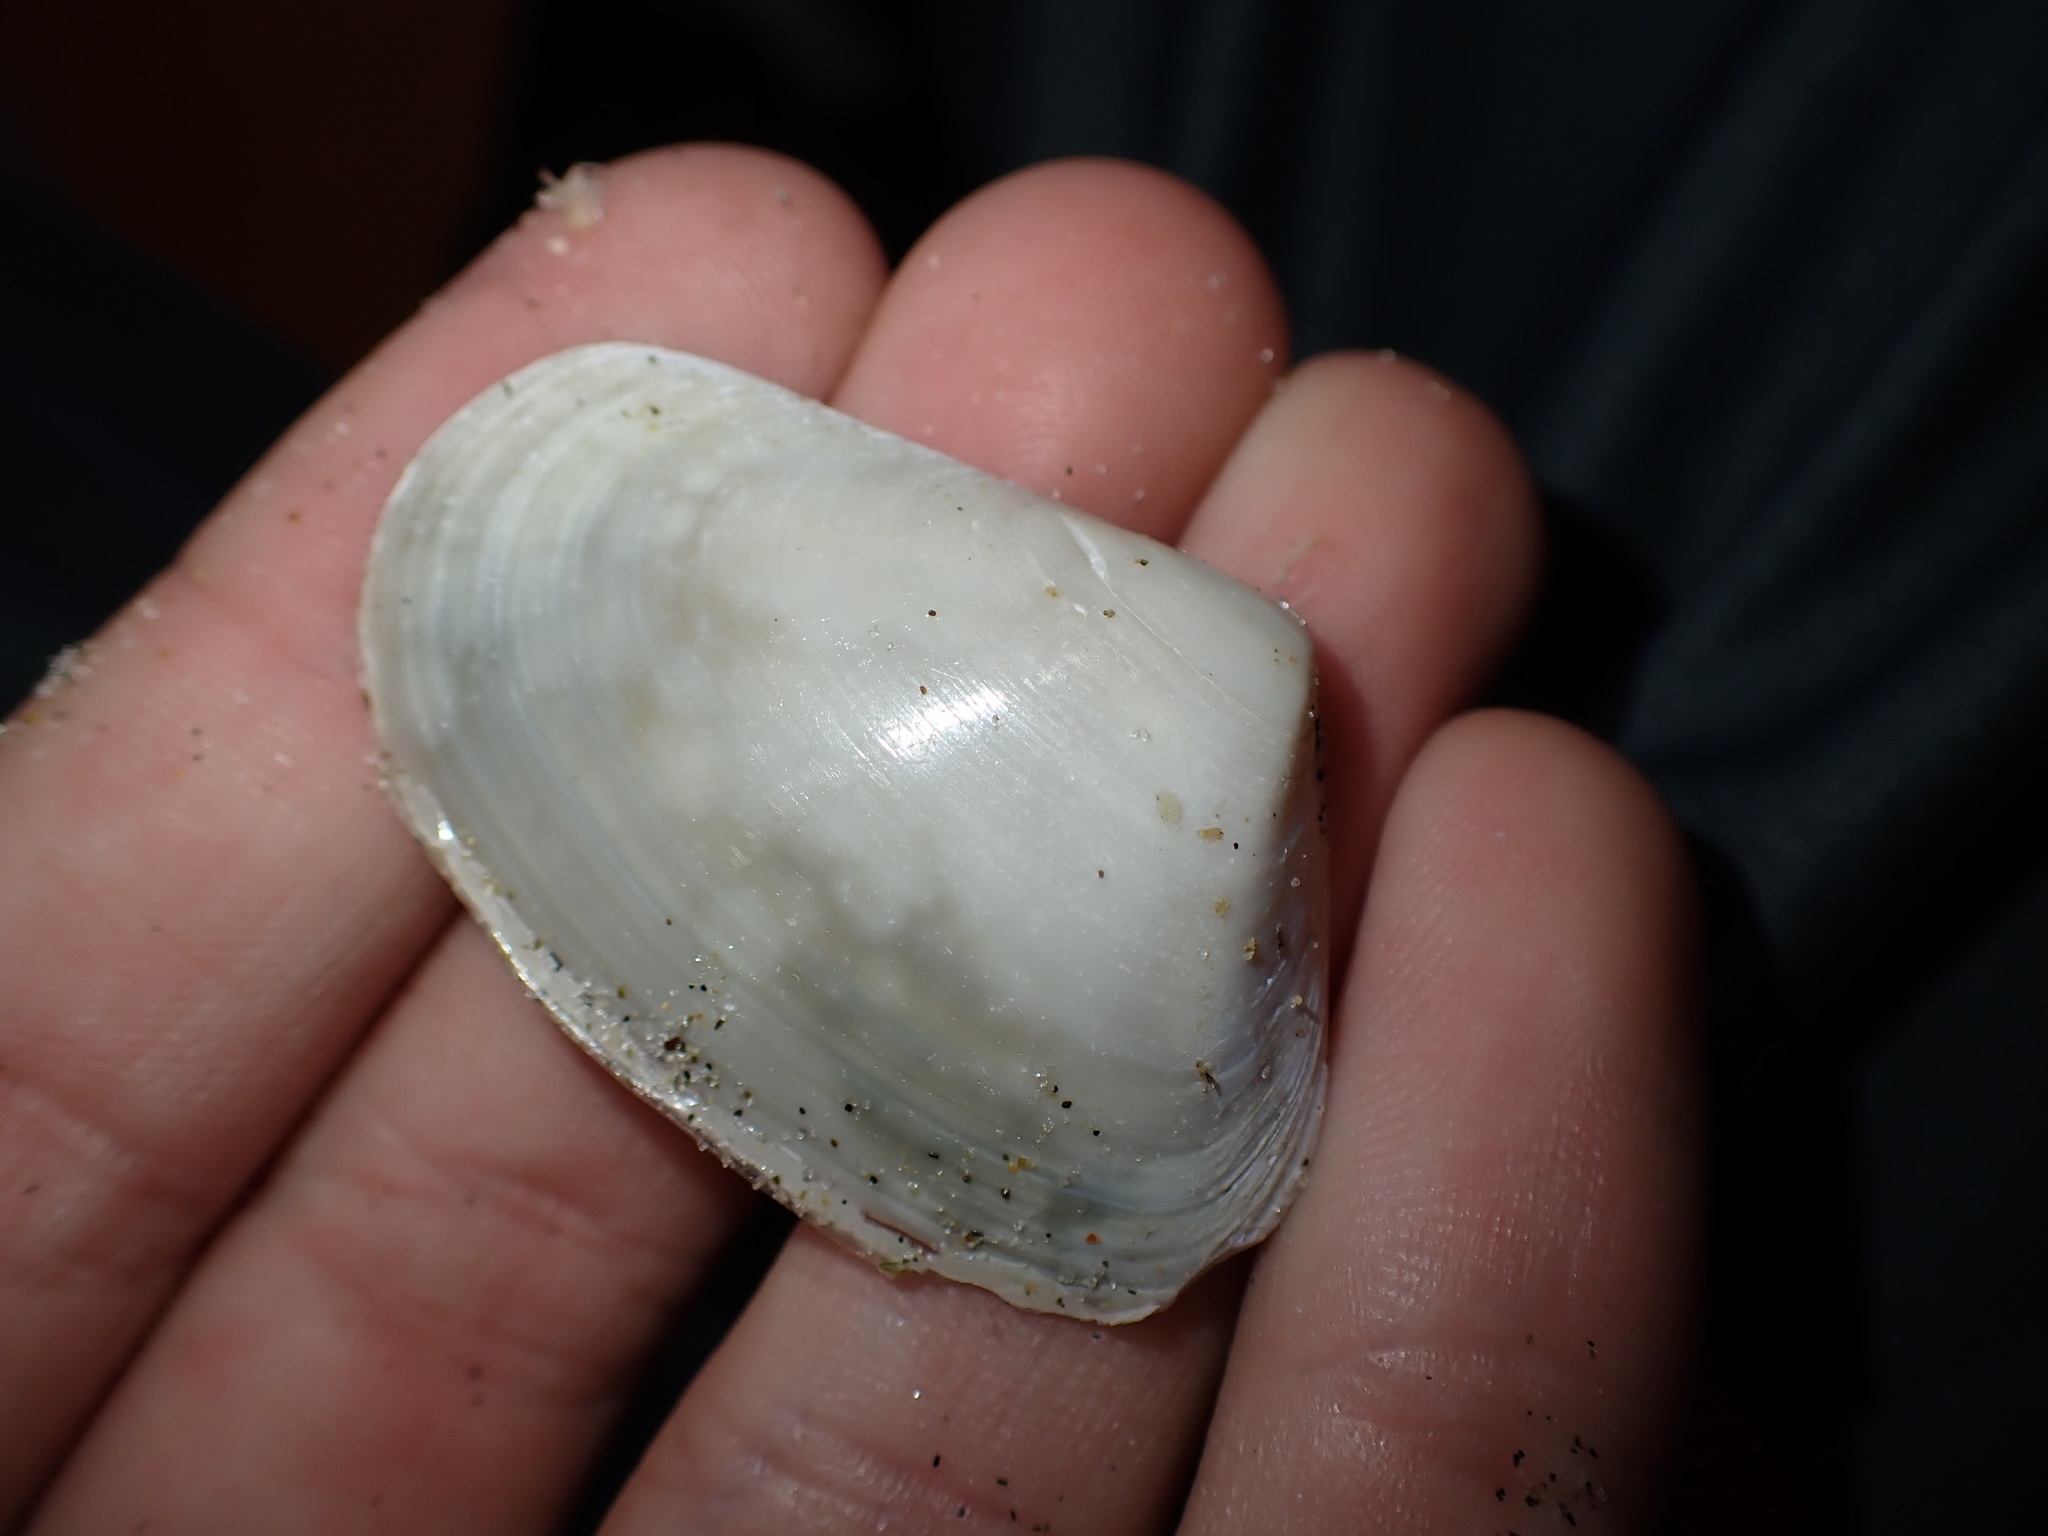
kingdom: Animalia
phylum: Mollusca
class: Bivalvia
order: Venerida
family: Mesodesmatidae
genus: Paphies
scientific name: Paphies subtriangulata
